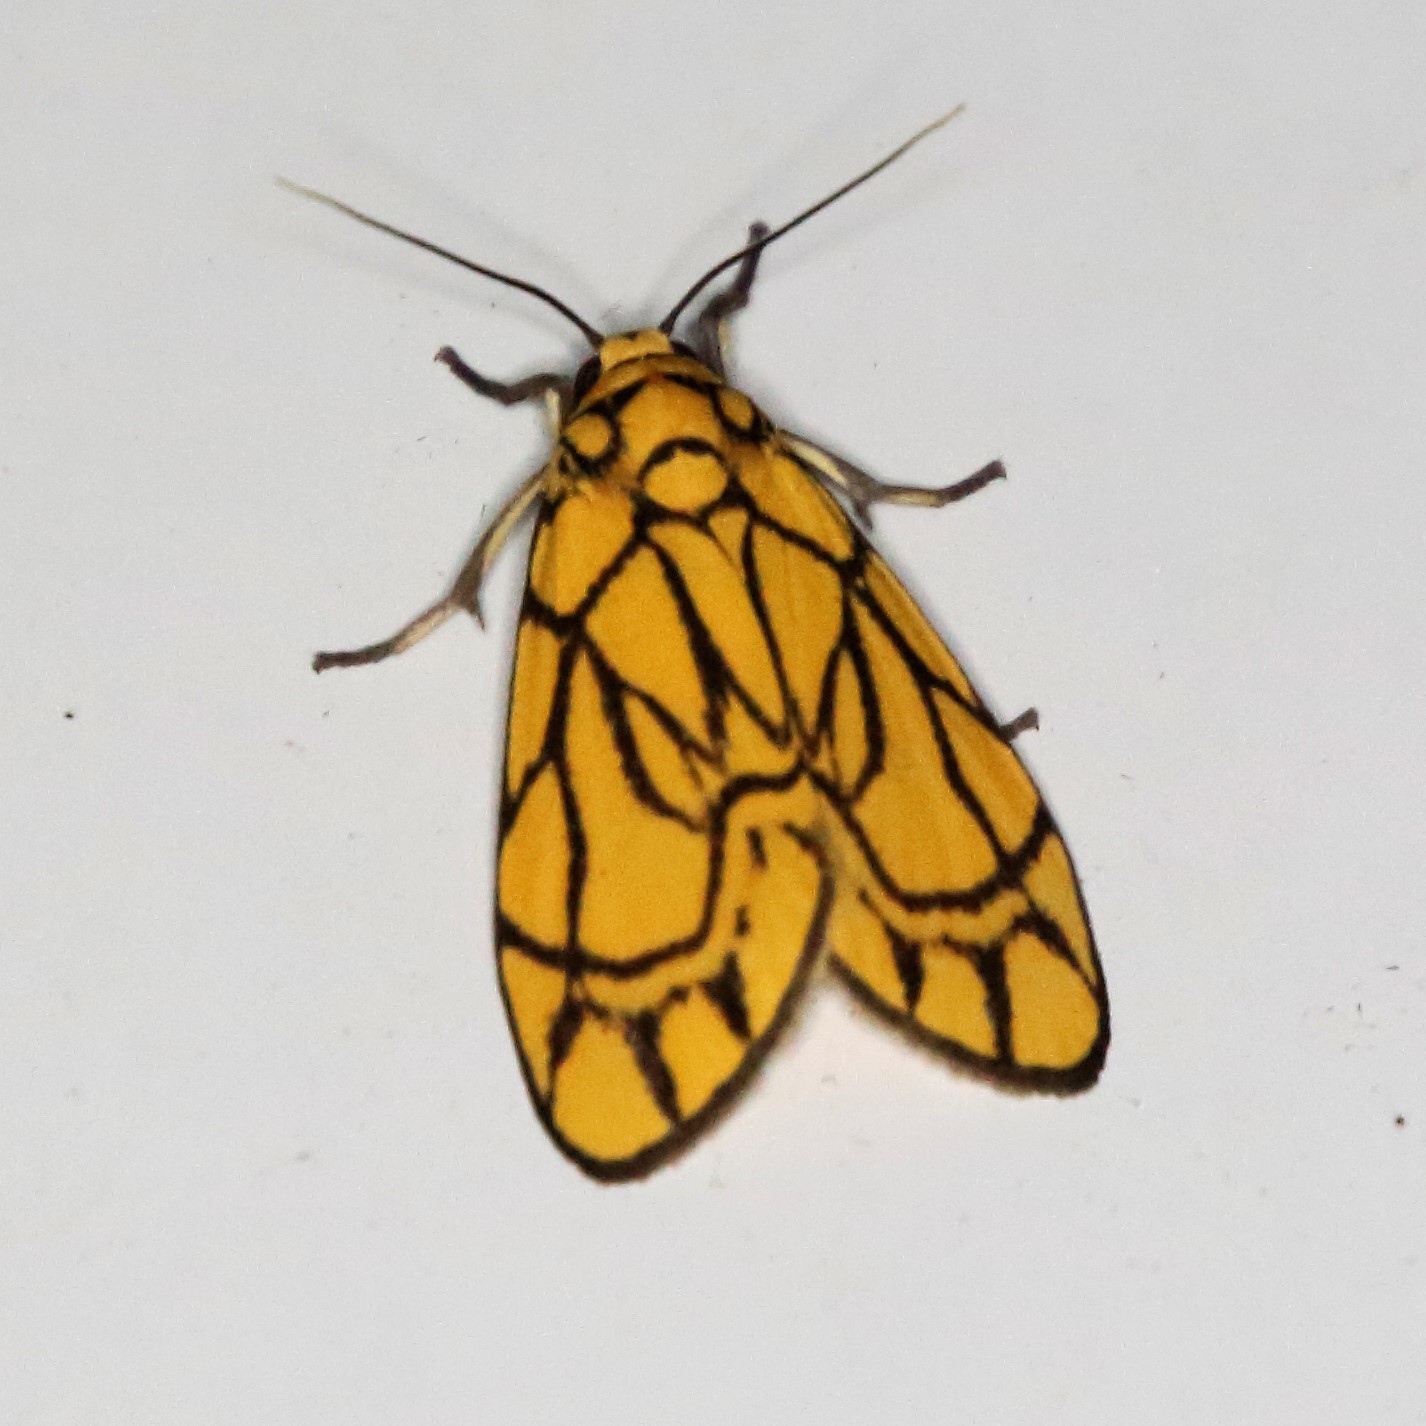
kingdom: Animalia
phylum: Arthropoda
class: Insecta
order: Lepidoptera
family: Erebidae
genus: Cyme
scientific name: Cyme euprepioides
